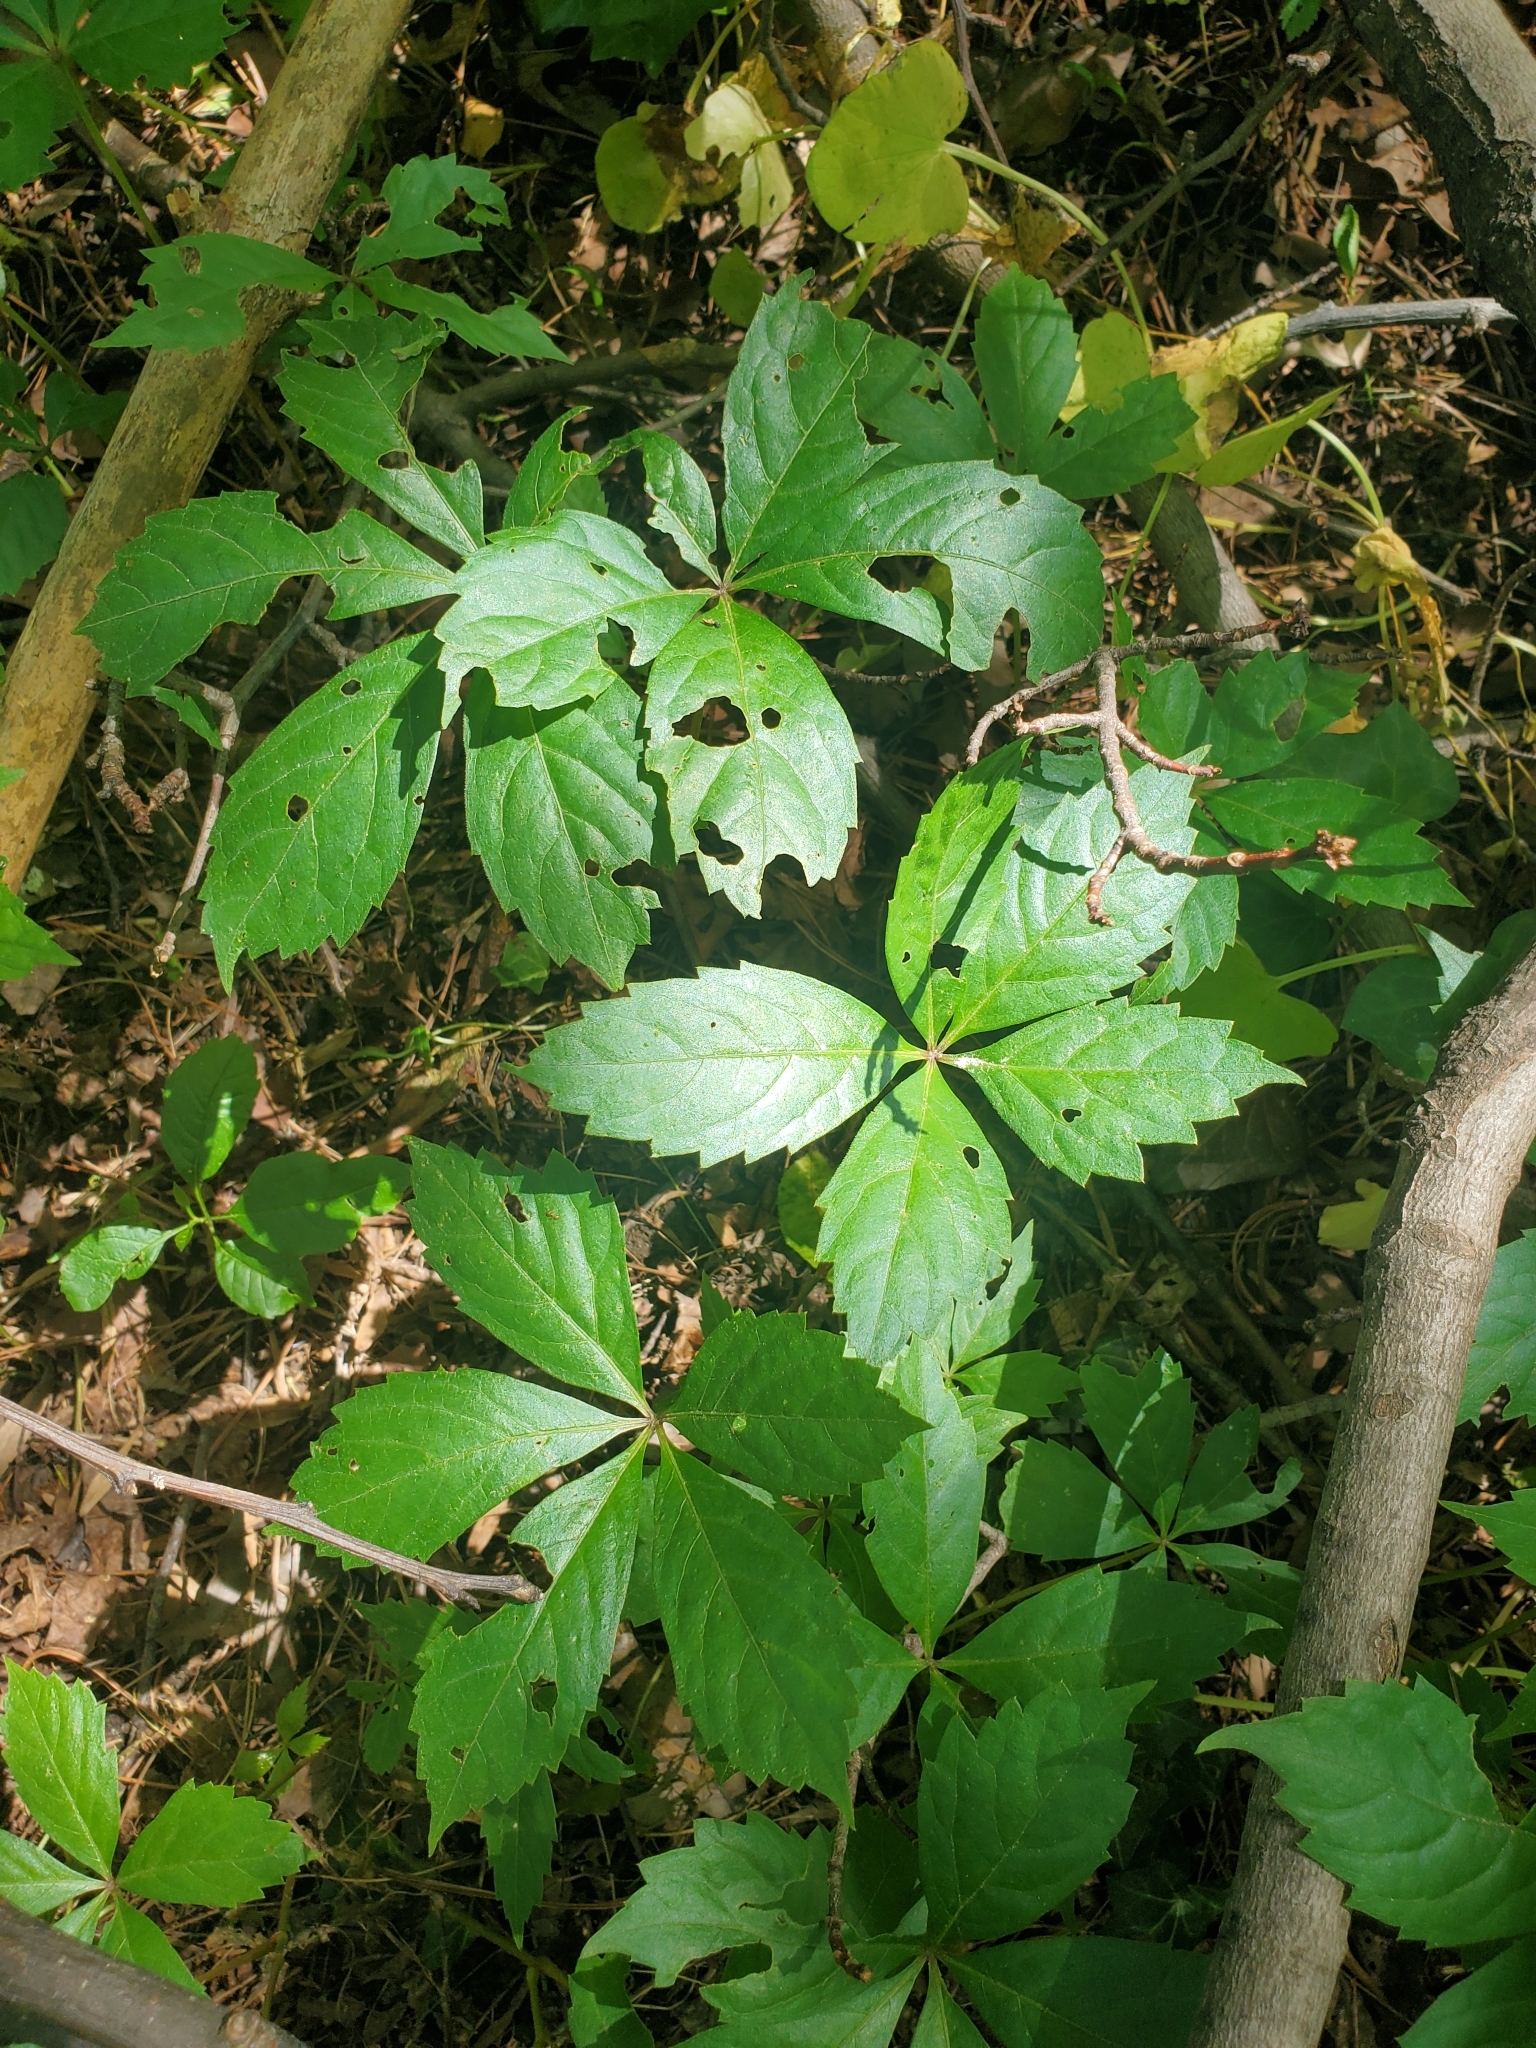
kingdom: Plantae
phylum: Tracheophyta
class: Magnoliopsida
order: Vitales
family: Vitaceae
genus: Parthenocissus
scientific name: Parthenocissus quinquefolia
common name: Virginia-creeper
